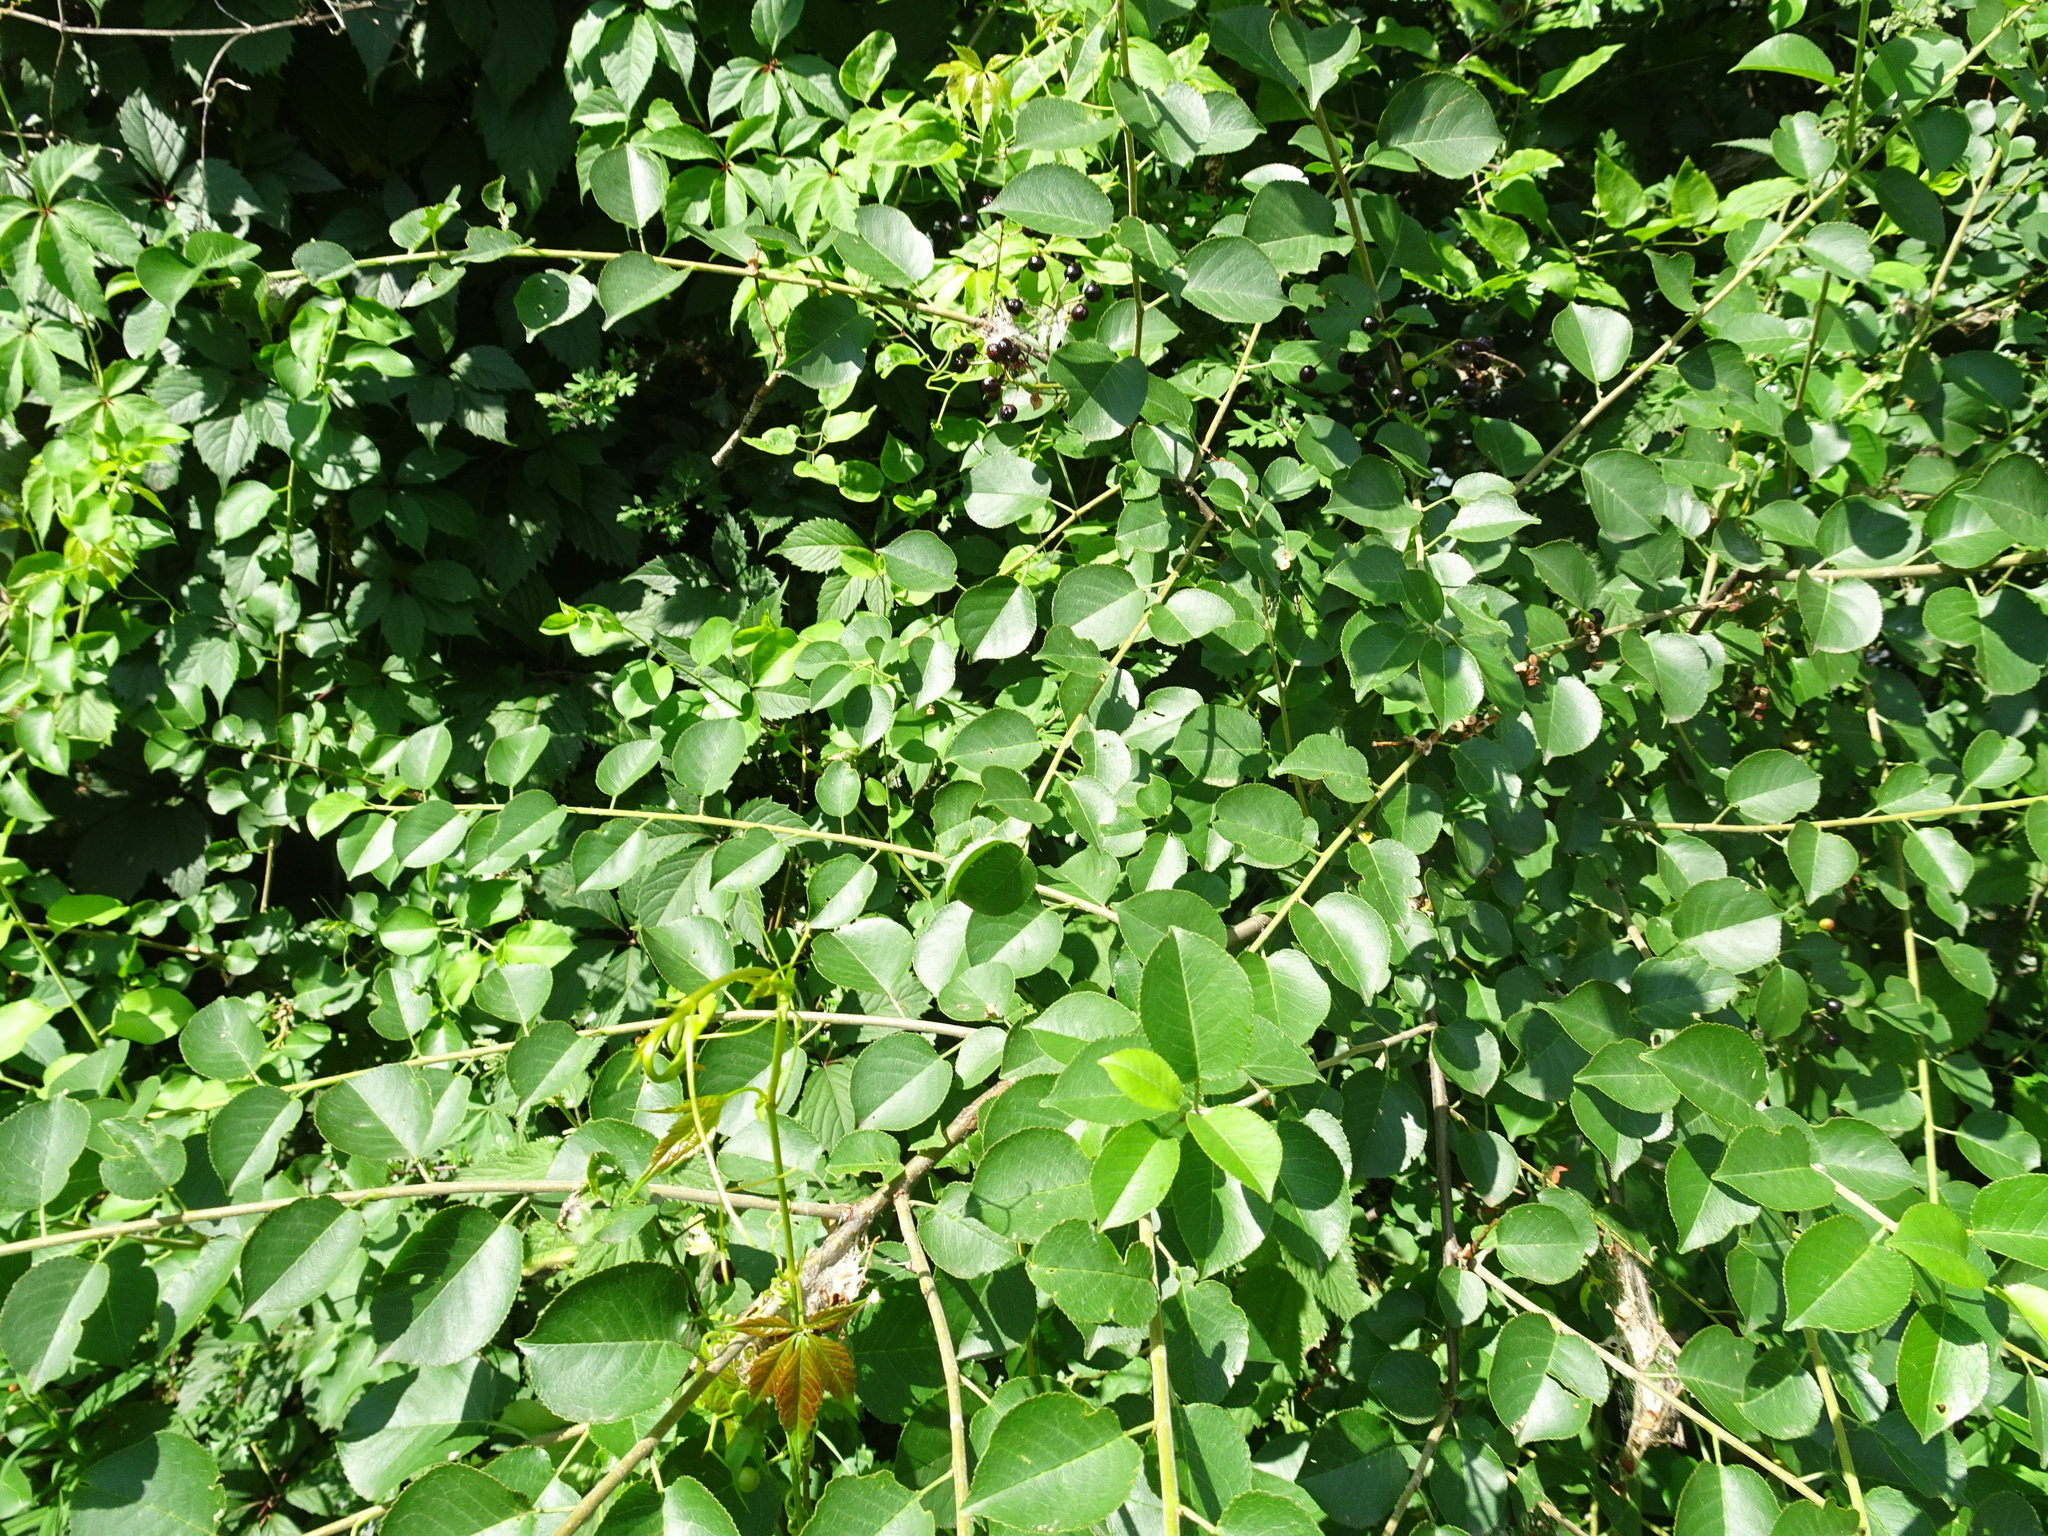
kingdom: Plantae
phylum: Tracheophyta
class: Magnoliopsida
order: Rosales
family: Rosaceae
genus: Prunus
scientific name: Prunus mahaleb
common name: Mahaleb cherry
